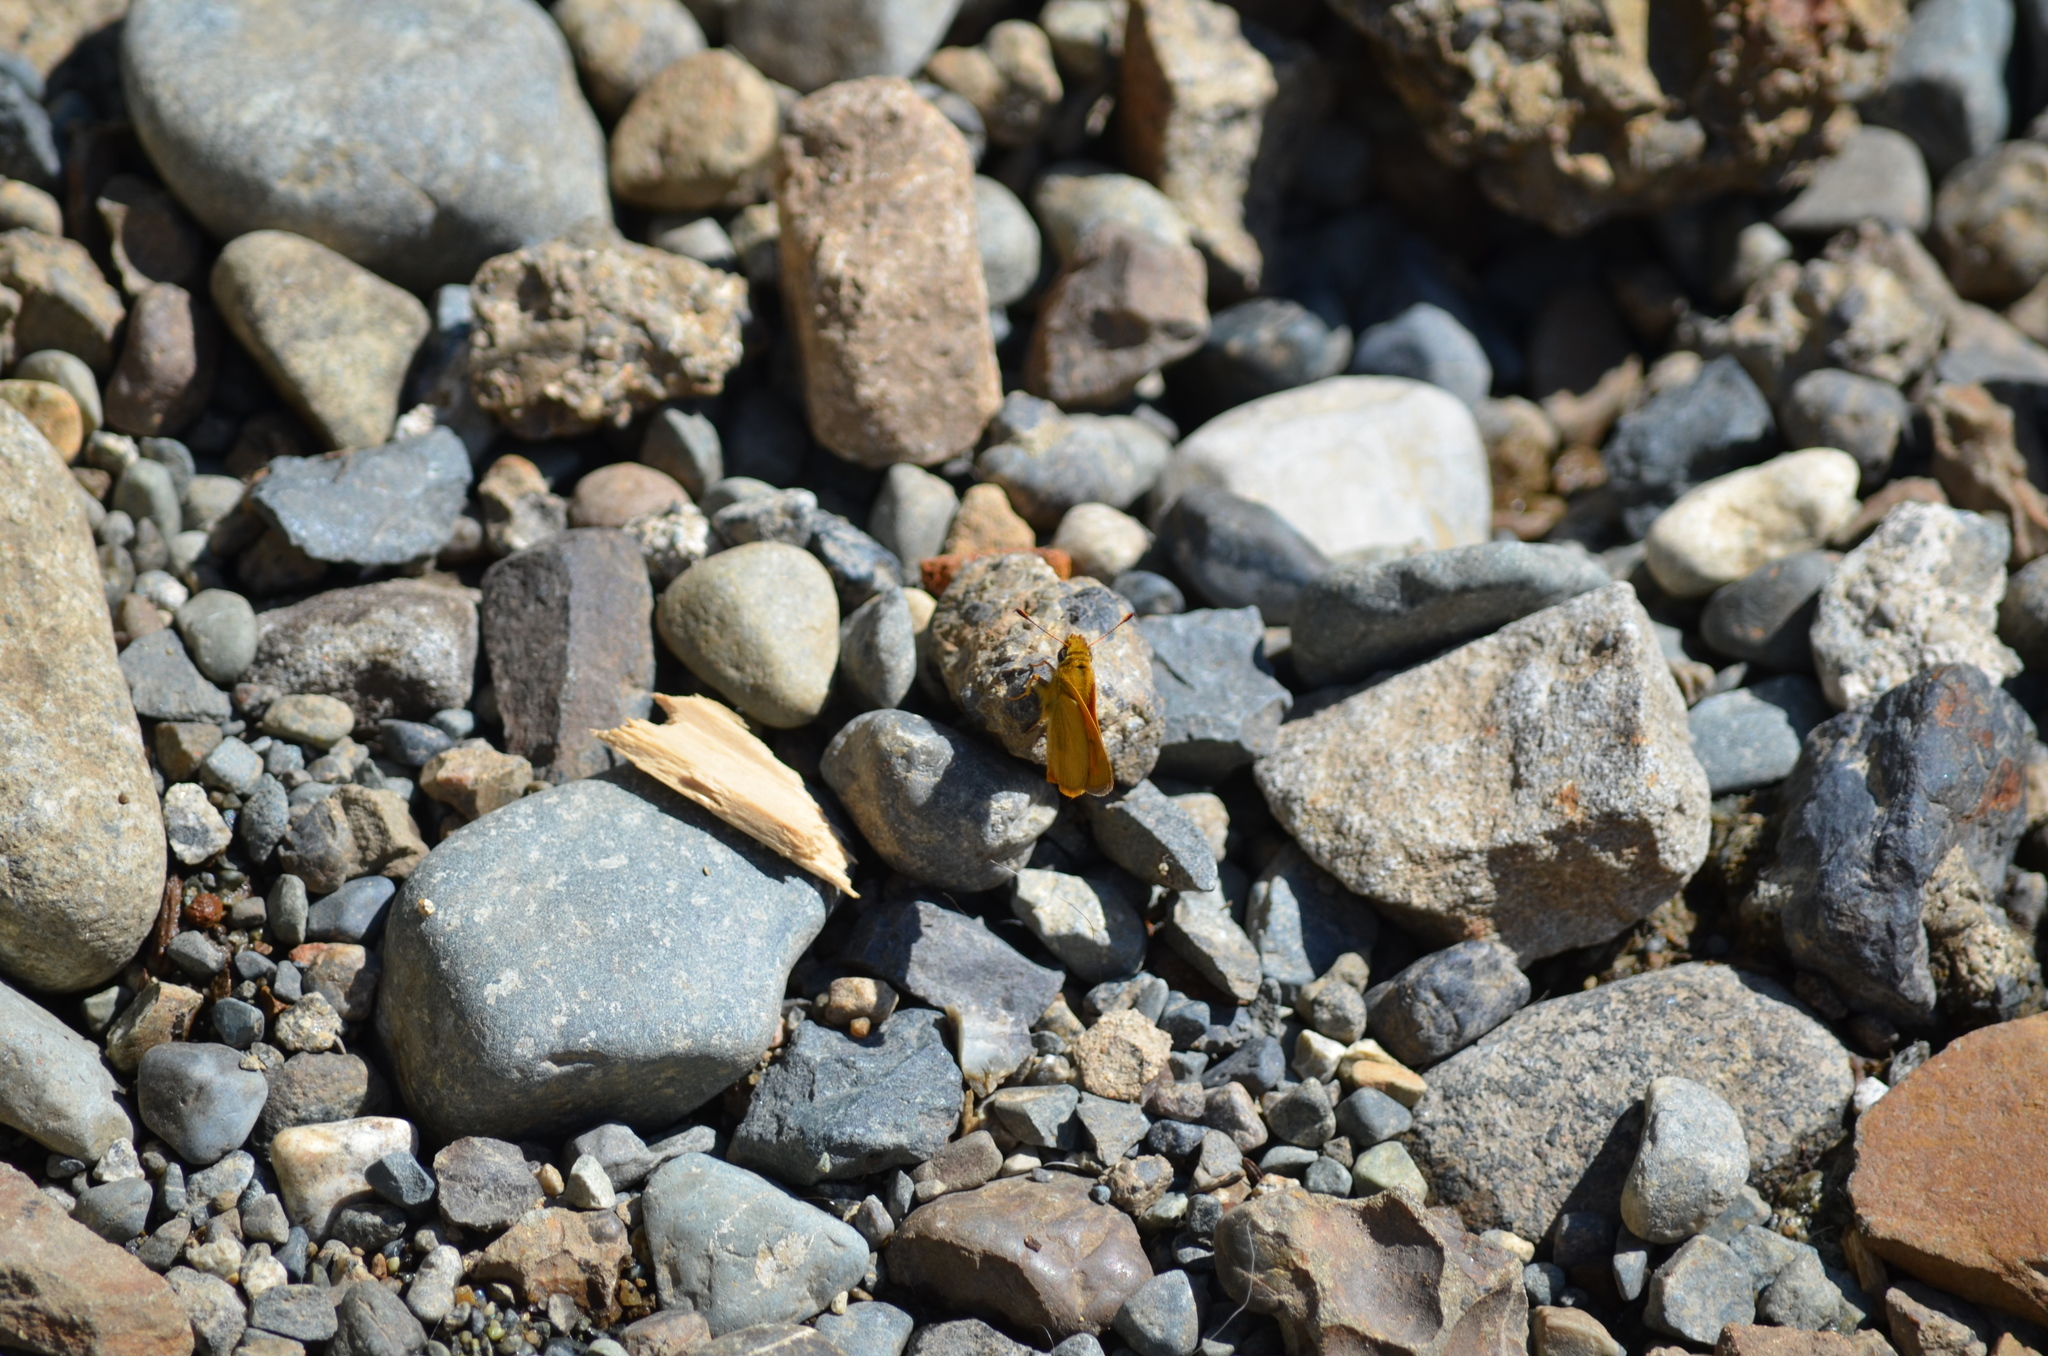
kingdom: Animalia
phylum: Arthropoda
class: Insecta
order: Lepidoptera
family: Hesperiidae
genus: Ochlodes
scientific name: Ochlodes sylvanoides
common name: Woodland skipper
